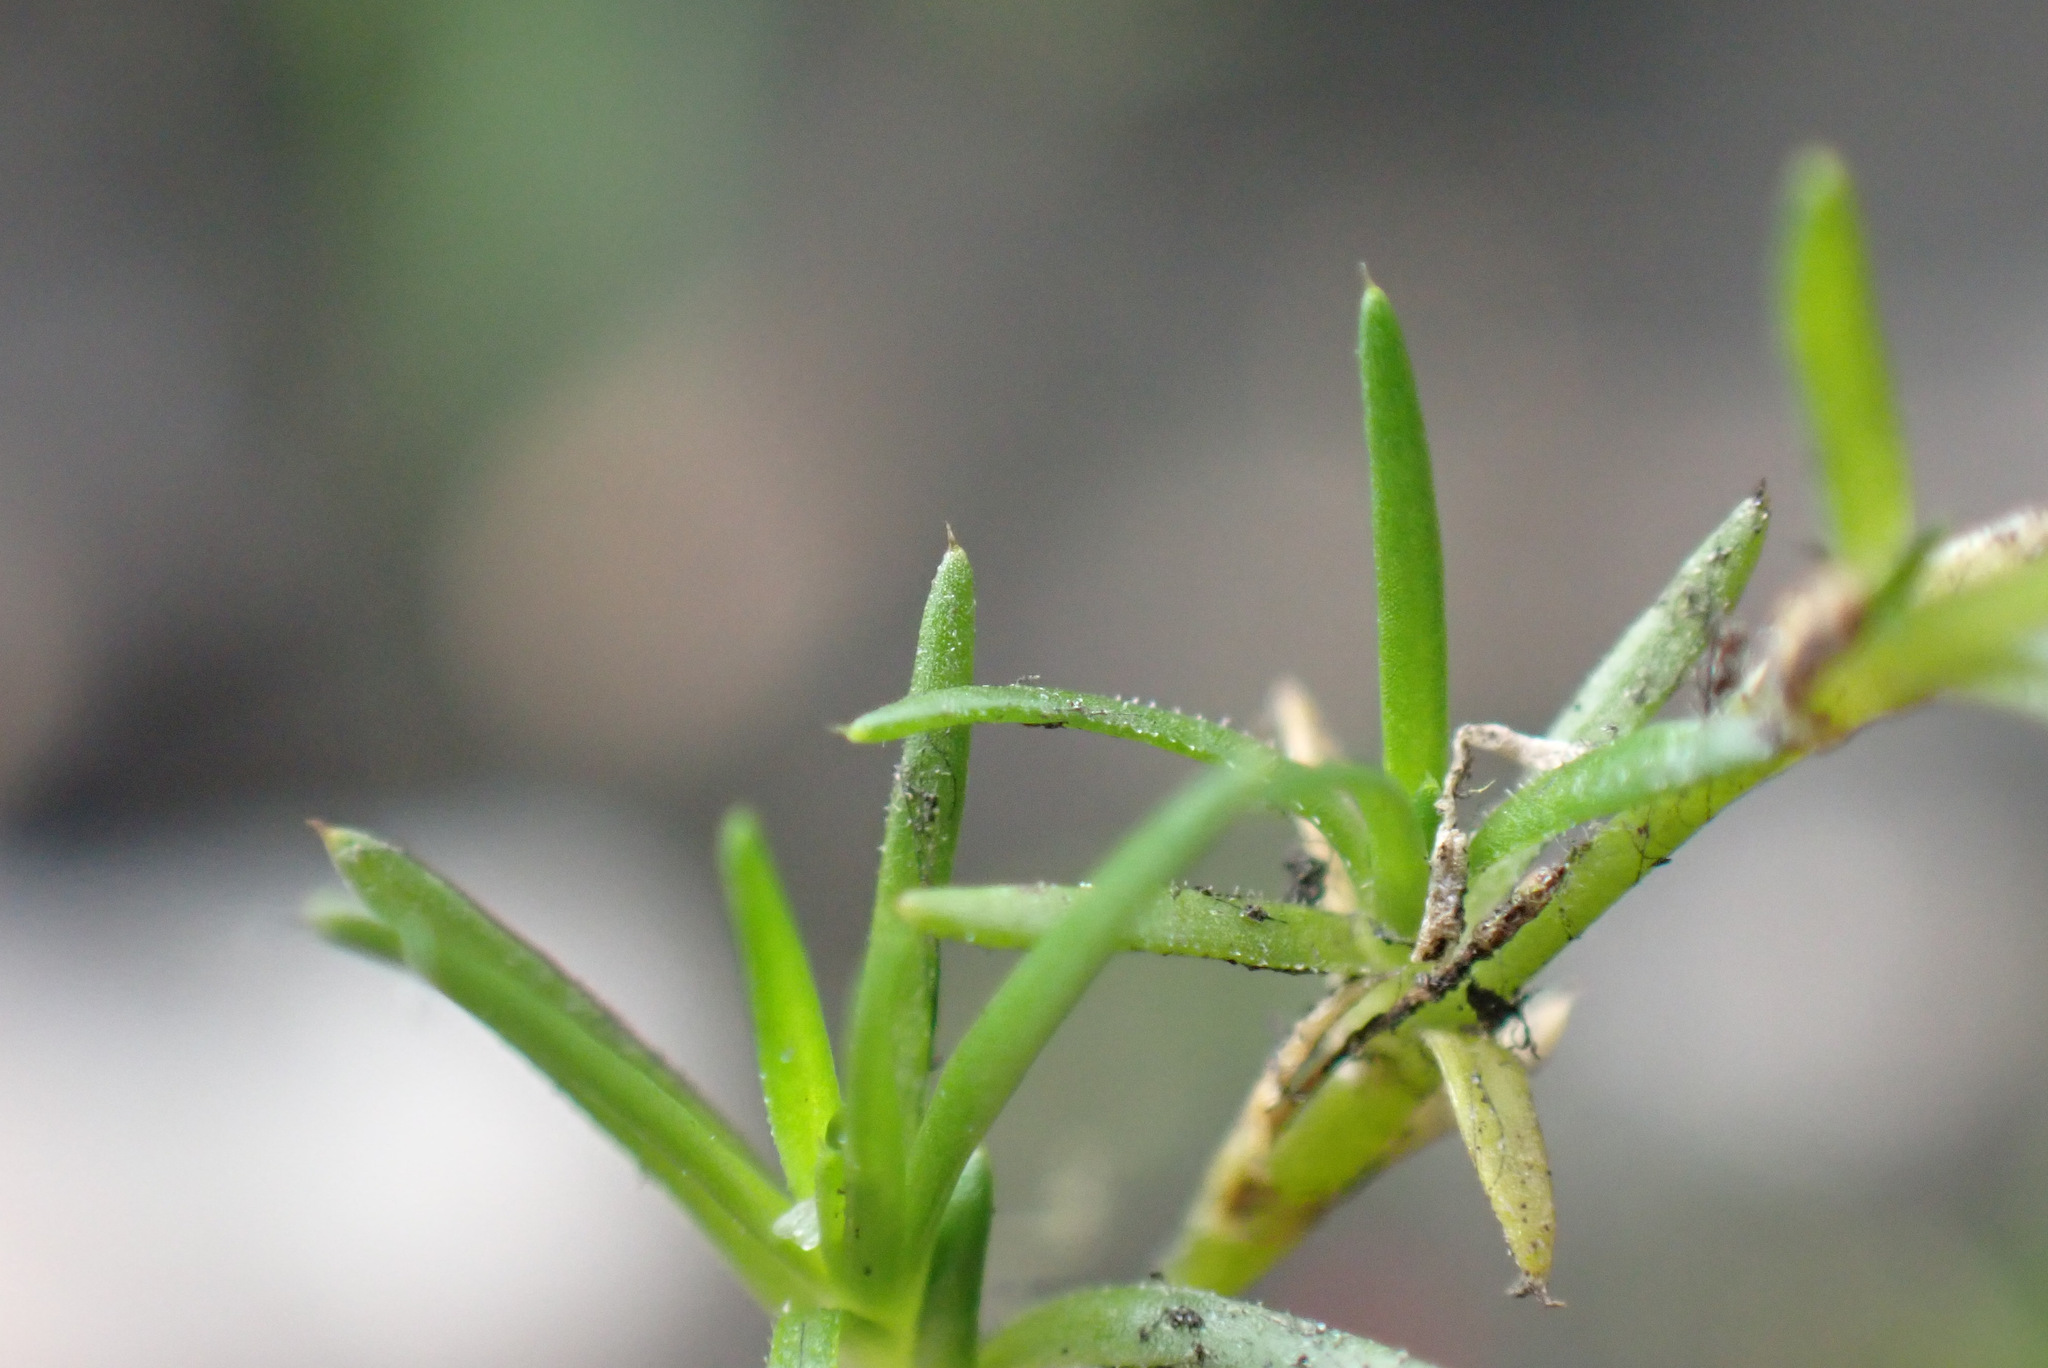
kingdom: Plantae
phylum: Tracheophyta
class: Magnoliopsida
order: Caryophyllales
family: Caryophyllaceae
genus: Sagina
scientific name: Sagina procumbens
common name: Procumbent pearlwort
